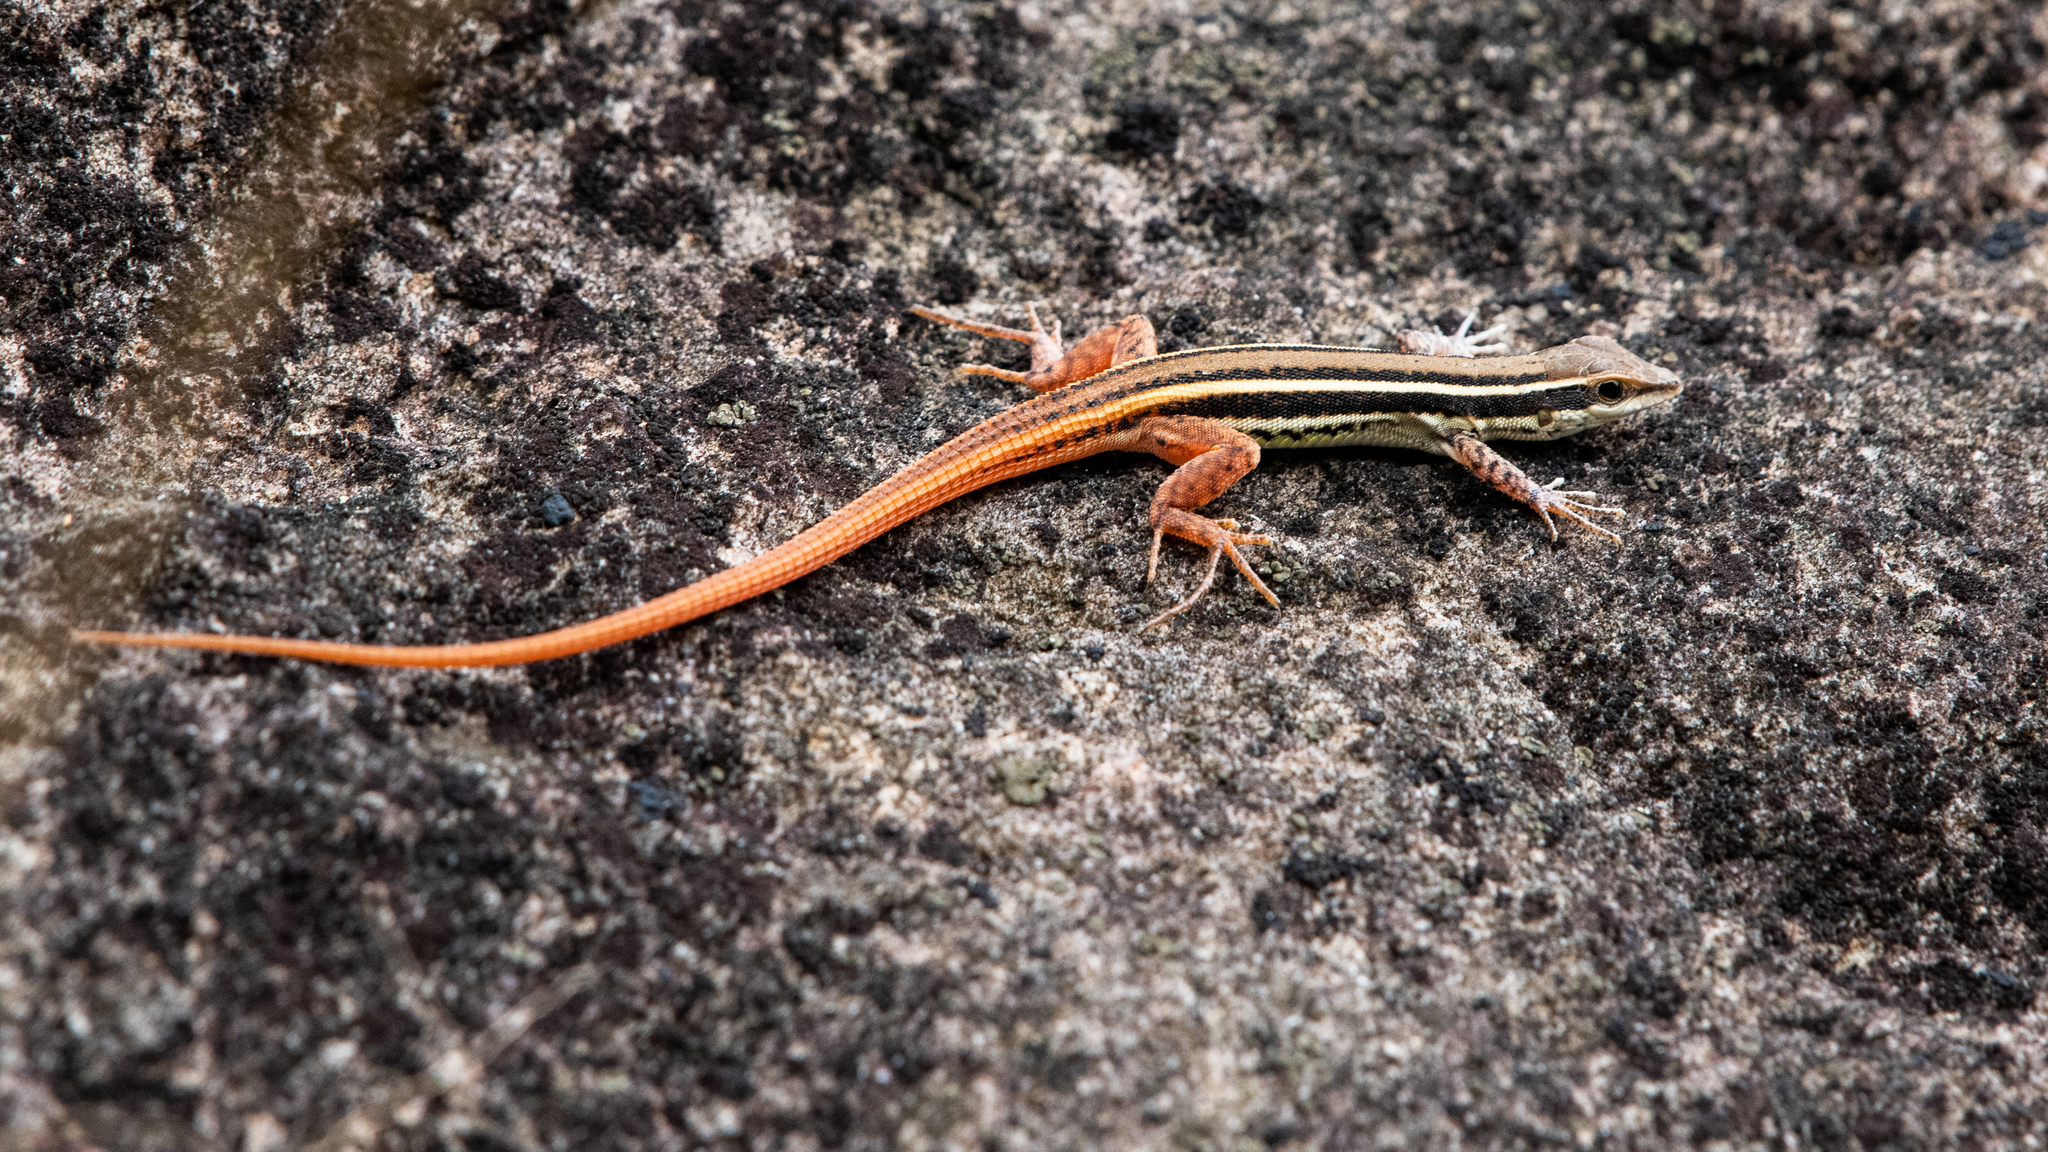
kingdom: Animalia
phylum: Chordata
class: Squamata
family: Lacertidae
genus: Ophisops
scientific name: Ophisops leschenaultii
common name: Leschenault's cabrita
